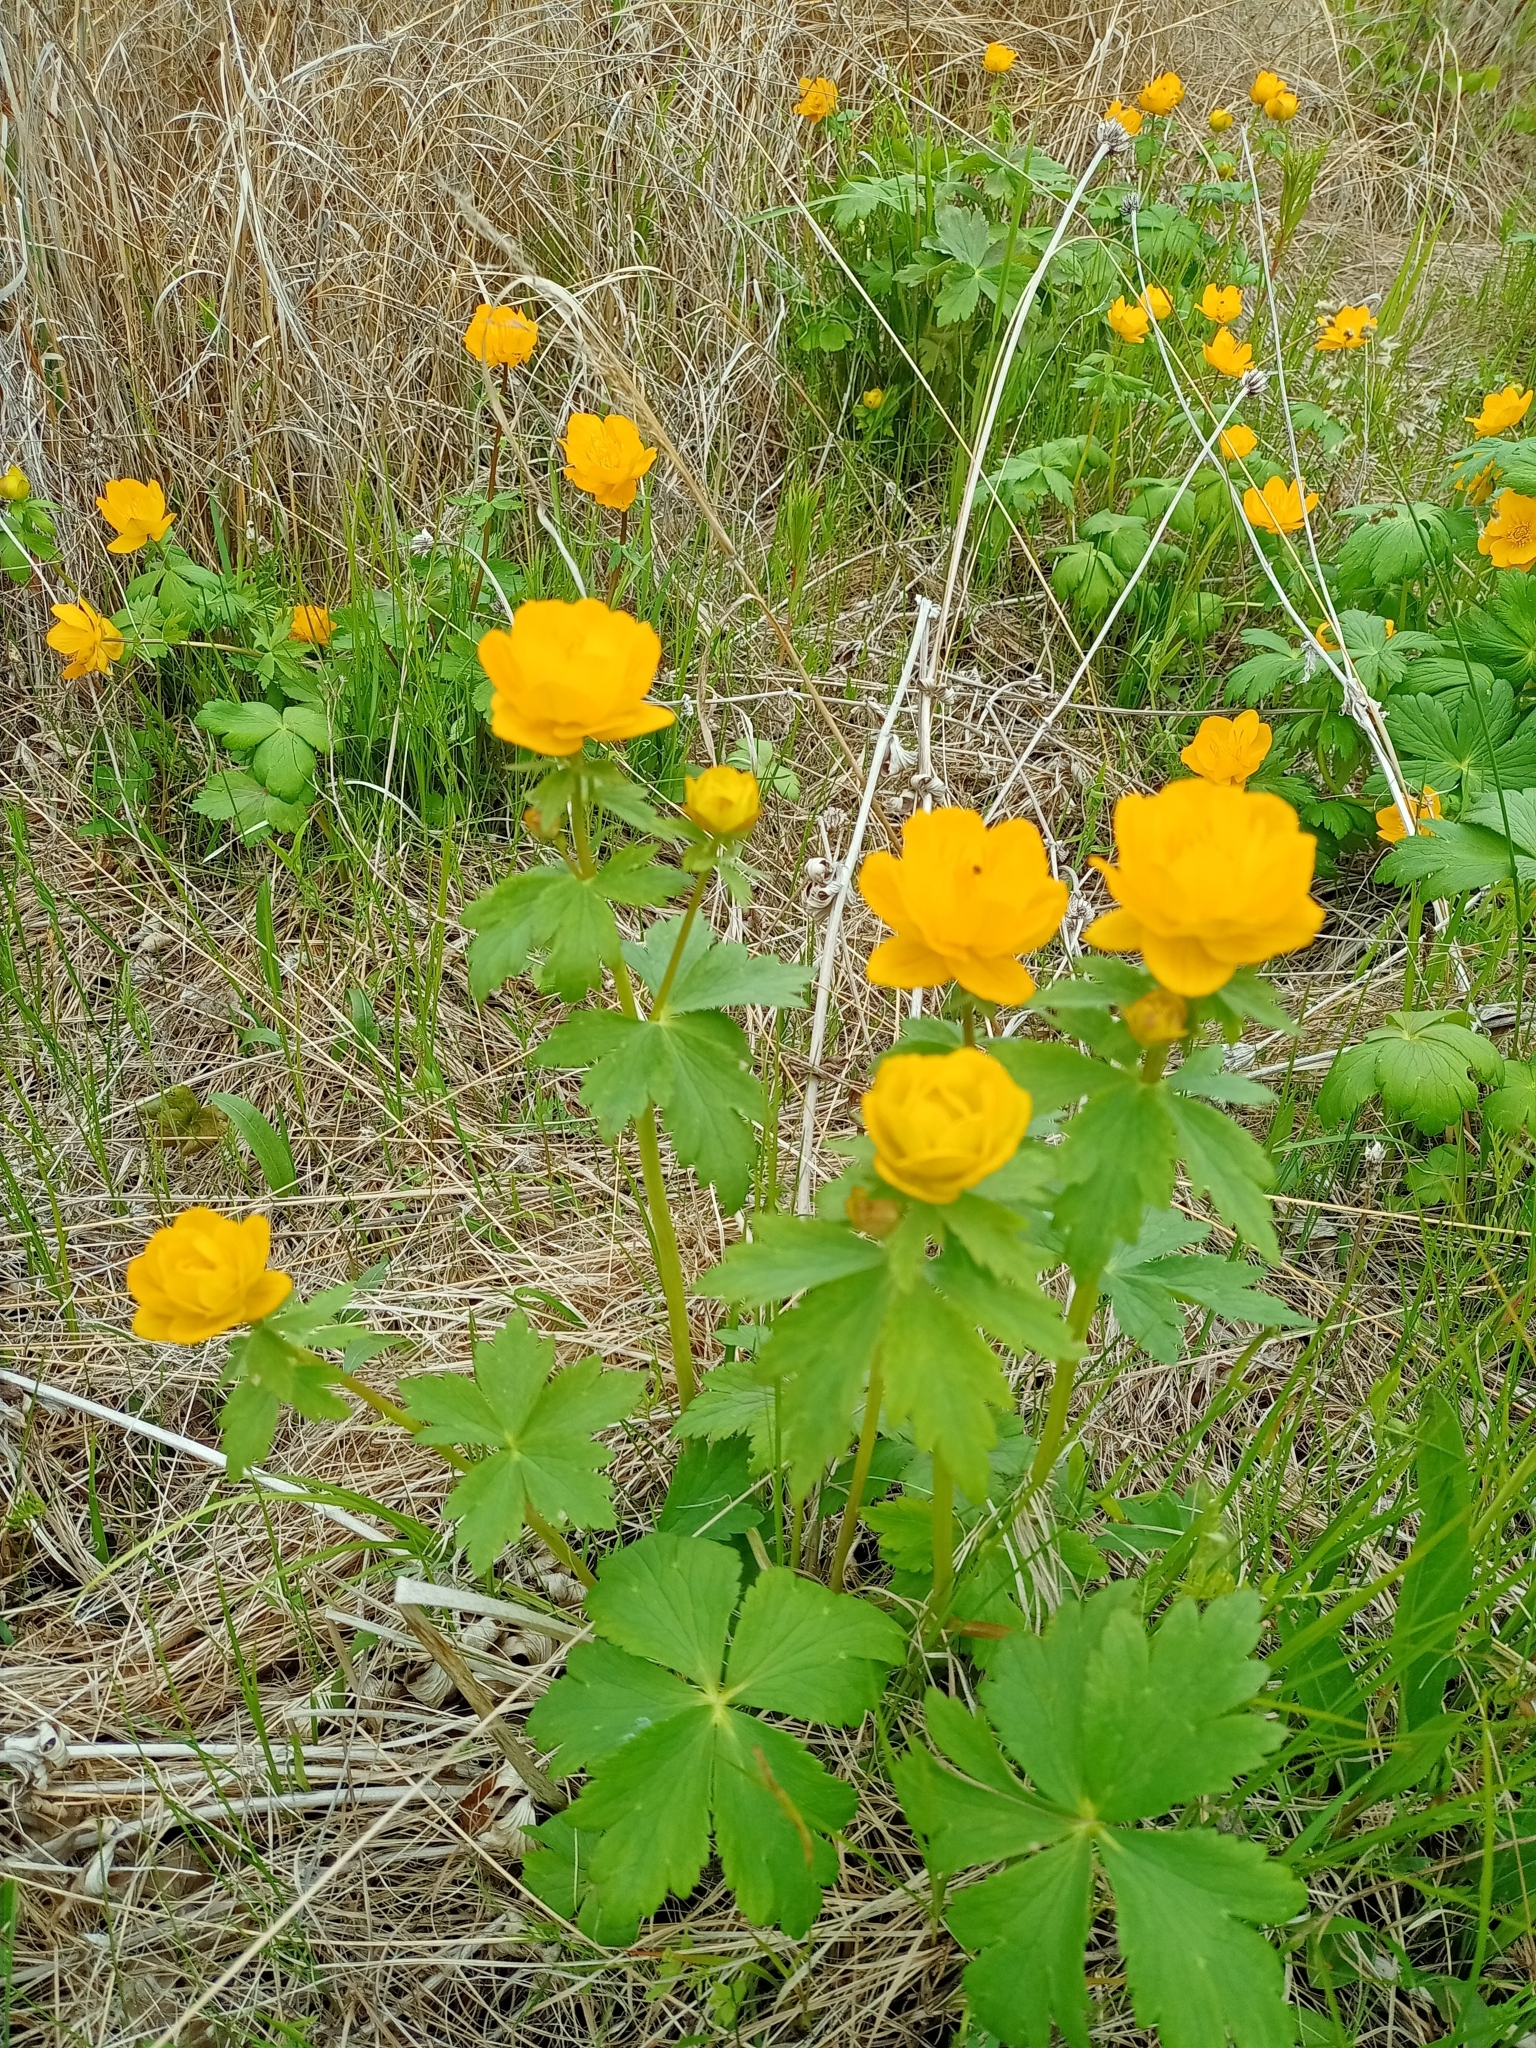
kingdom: Plantae
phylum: Tracheophyta
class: Magnoliopsida
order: Ranunculales
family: Ranunculaceae
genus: Trollius
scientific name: Trollius asiaticus
